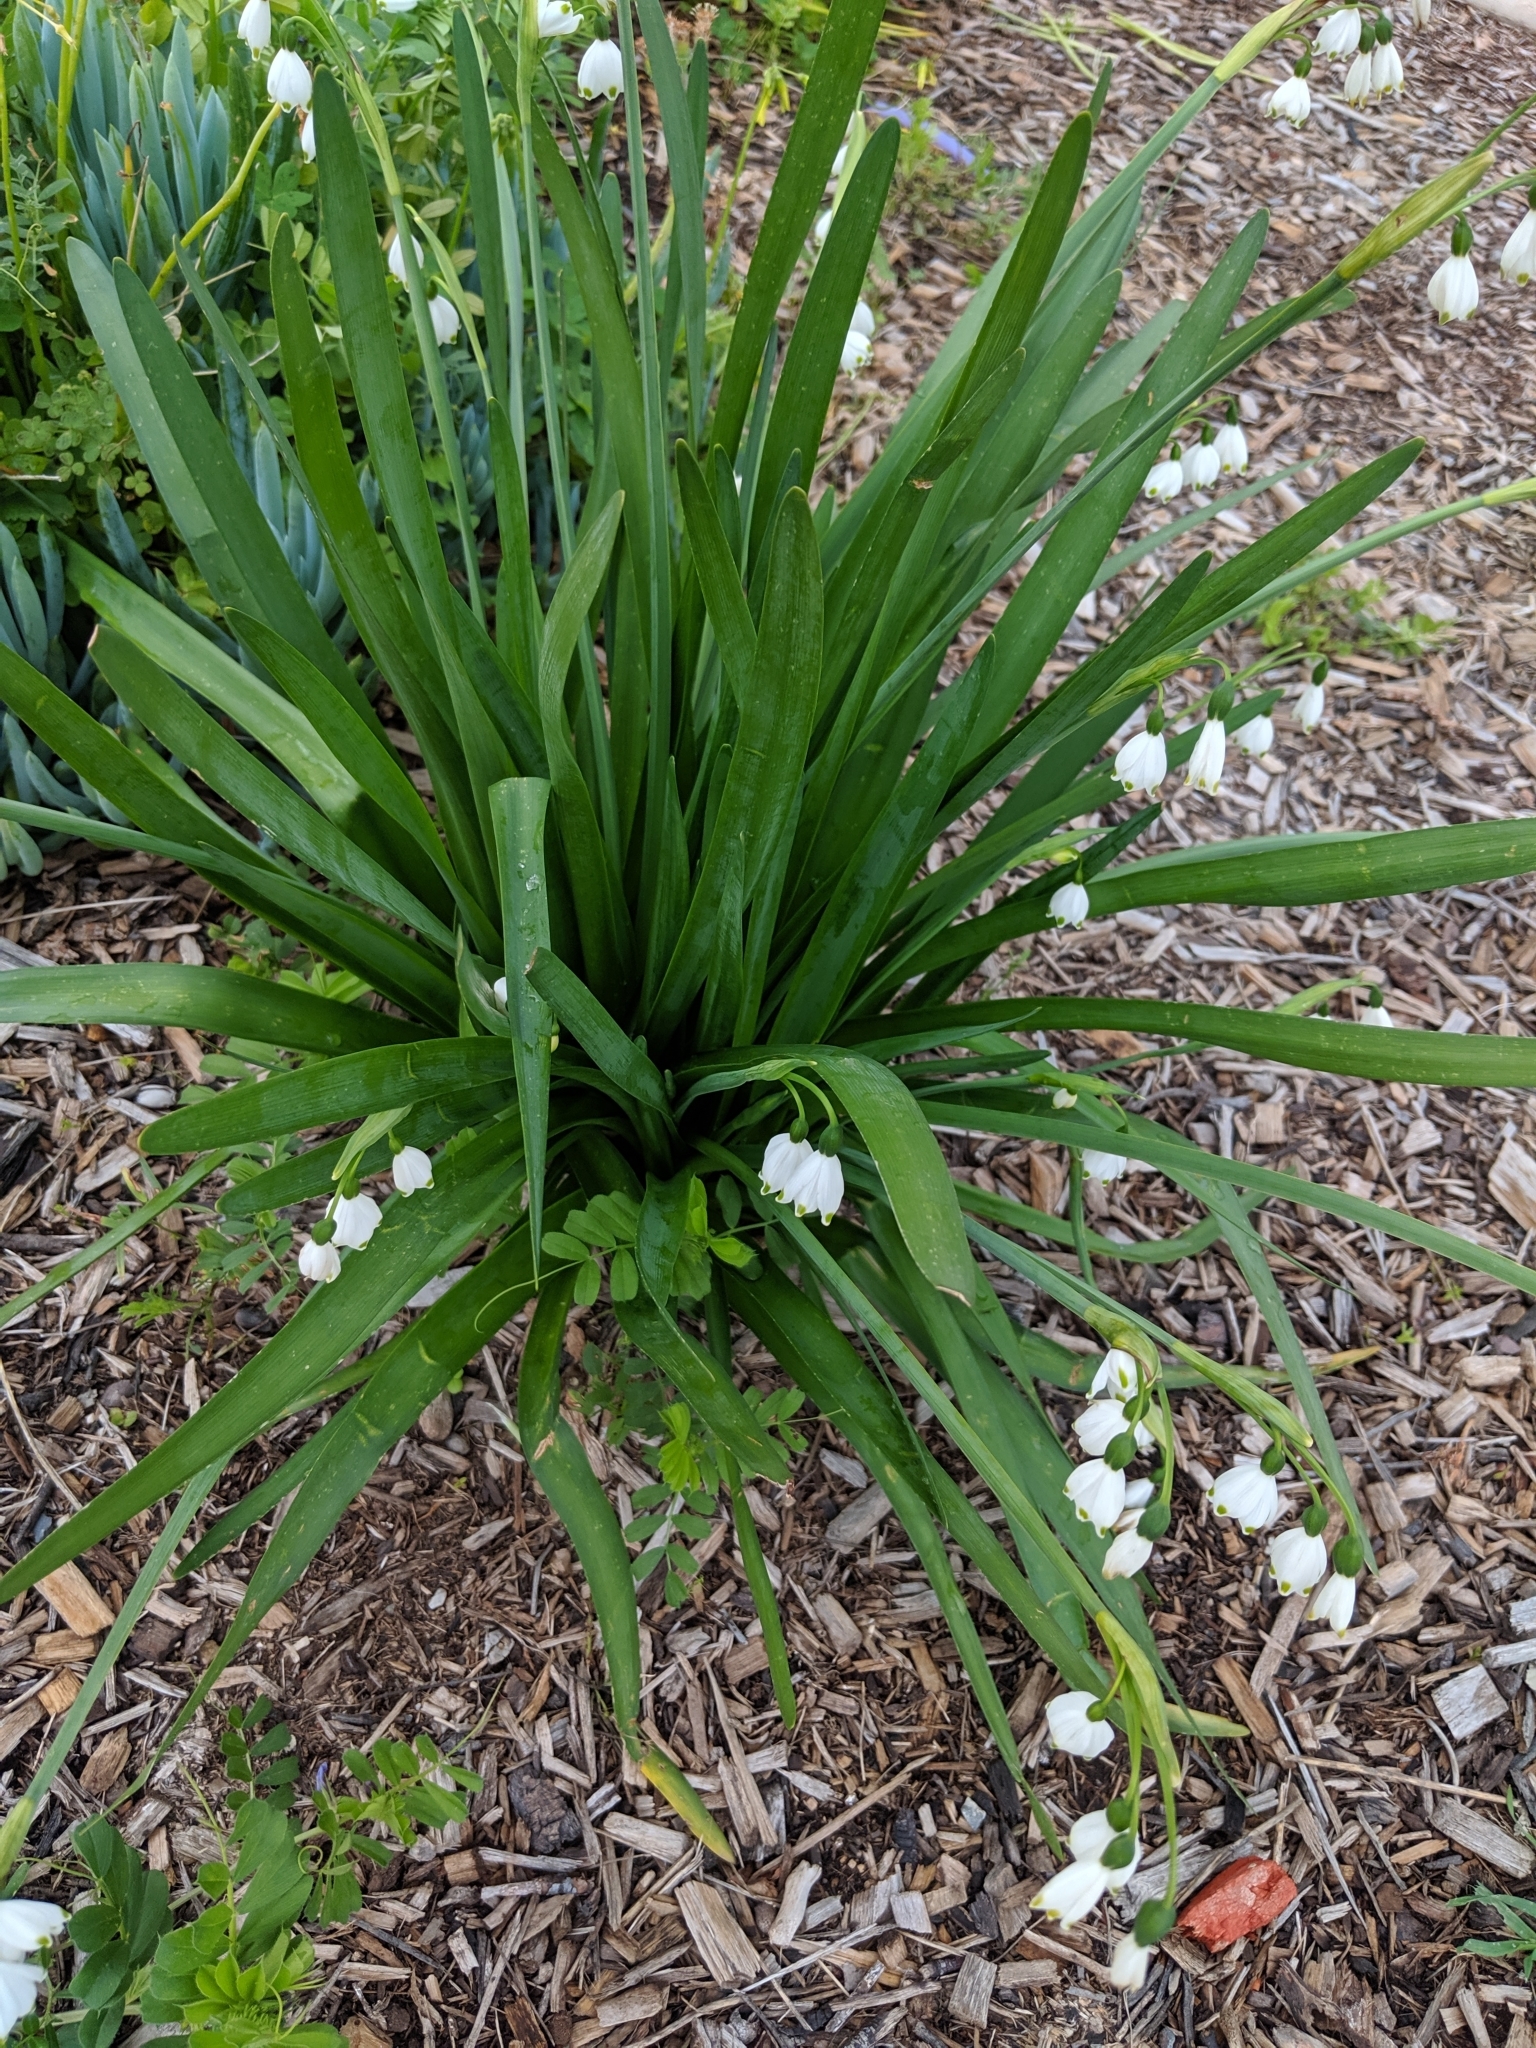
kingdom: Plantae
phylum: Tracheophyta
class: Liliopsida
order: Asparagales
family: Amaryllidaceae
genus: Leucojum
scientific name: Leucojum aestivum
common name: Summer snowflake
